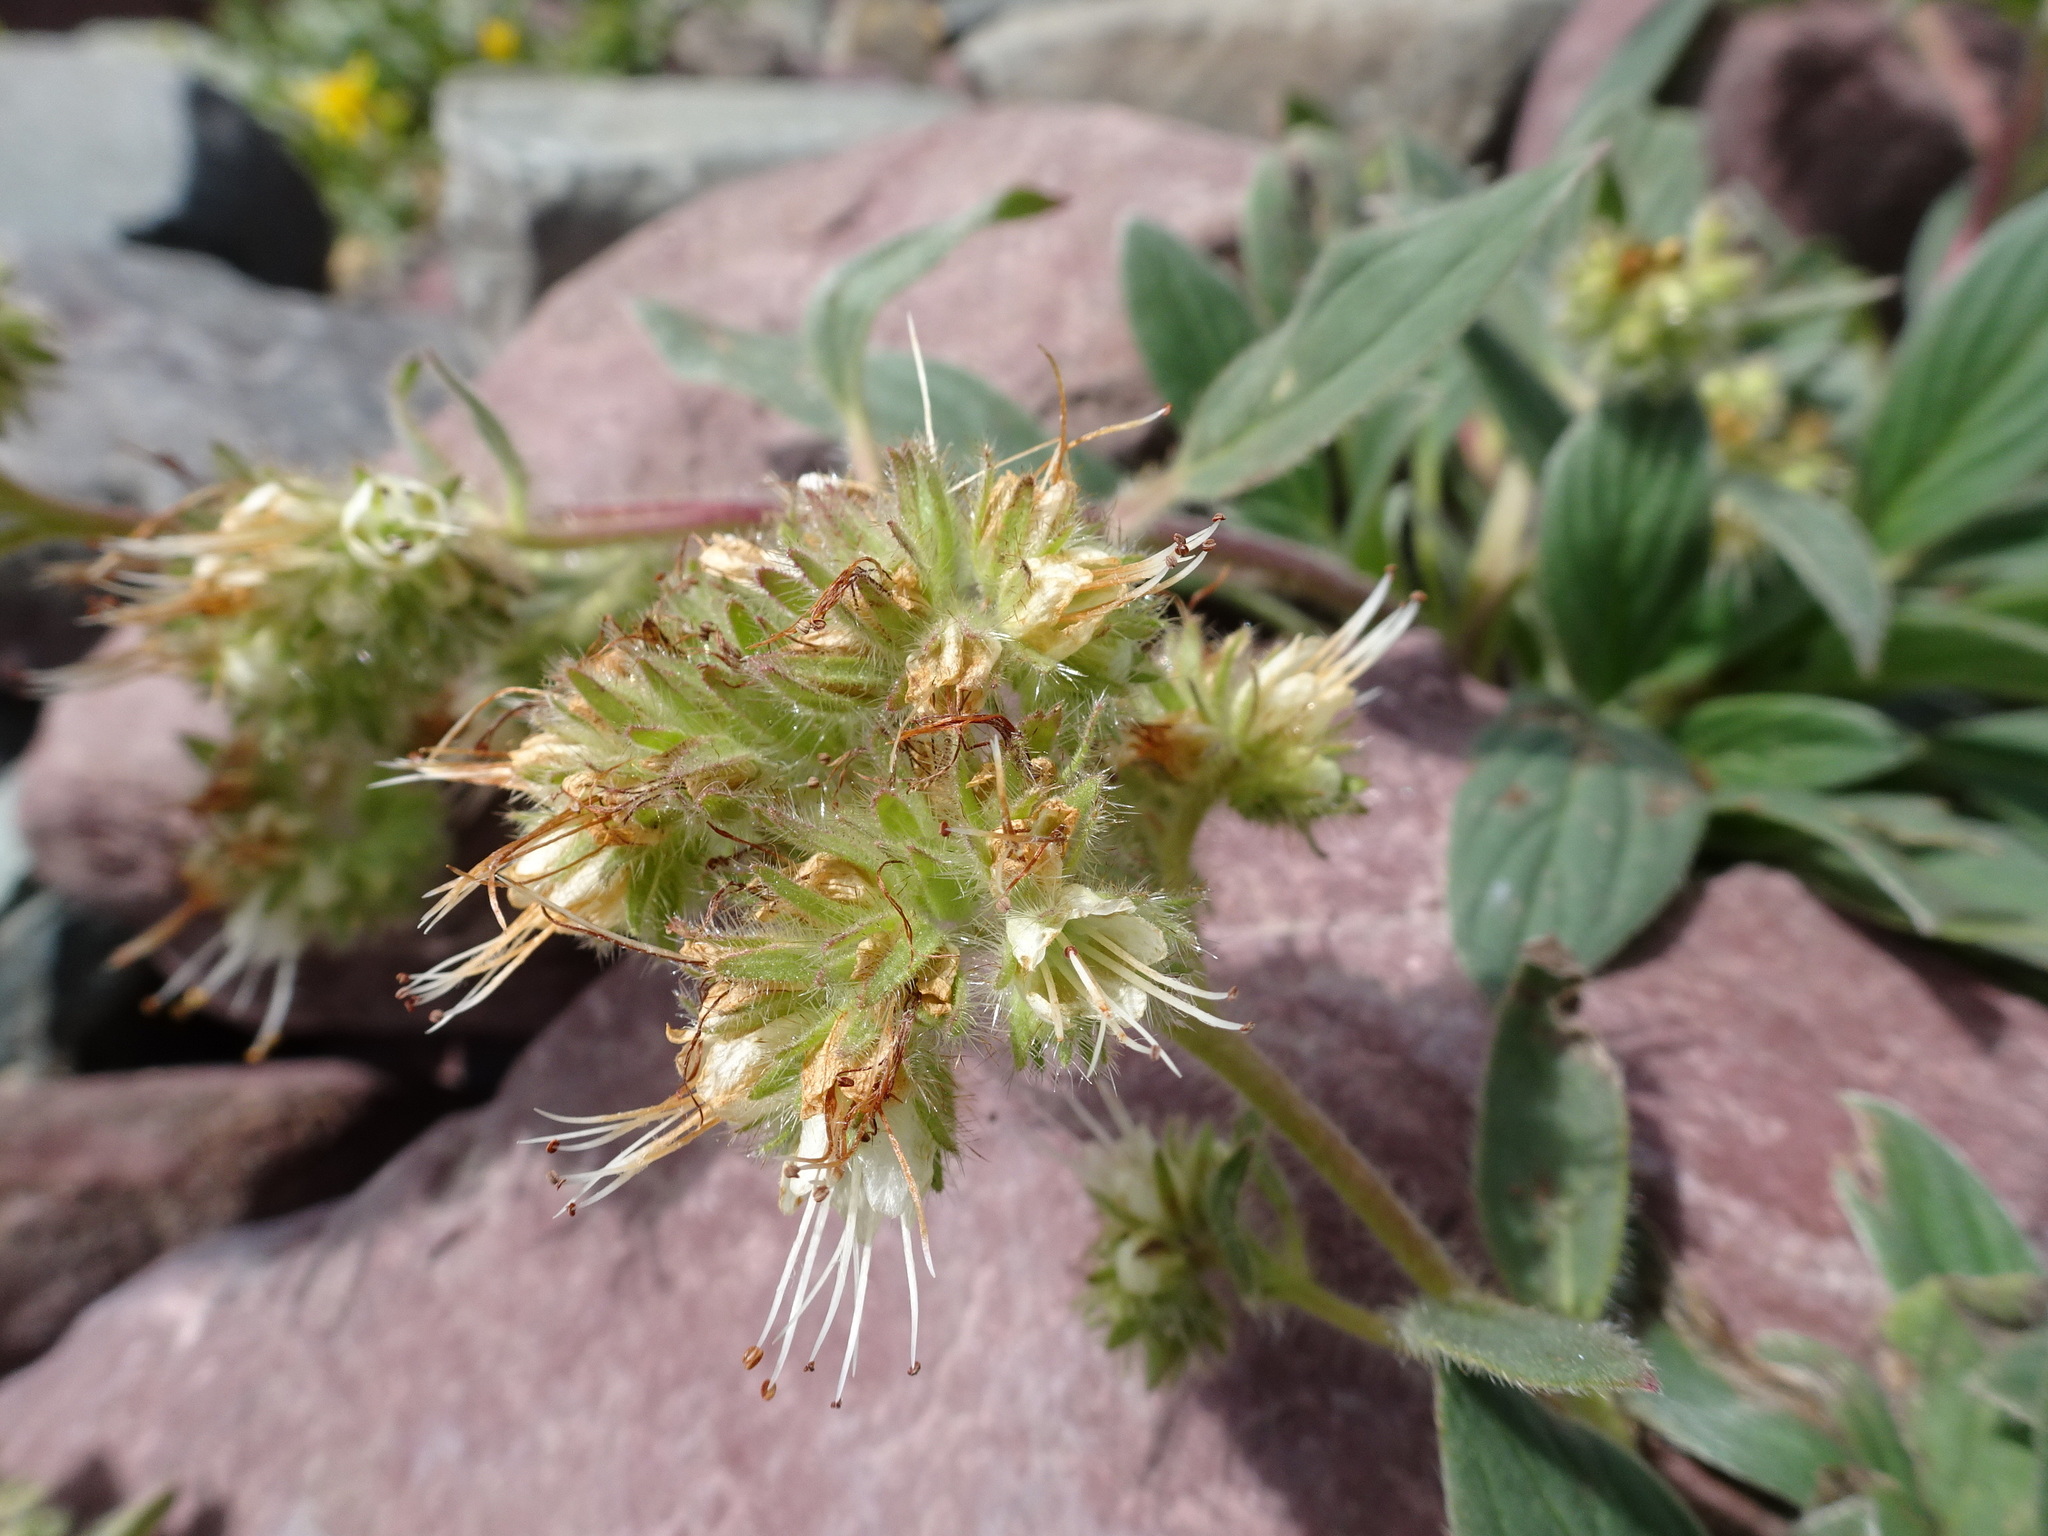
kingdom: Plantae
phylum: Tracheophyta
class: Magnoliopsida
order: Boraginales
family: Hydrophyllaceae
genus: Phacelia
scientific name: Phacelia hastata
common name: Silver-leaved phacelia
